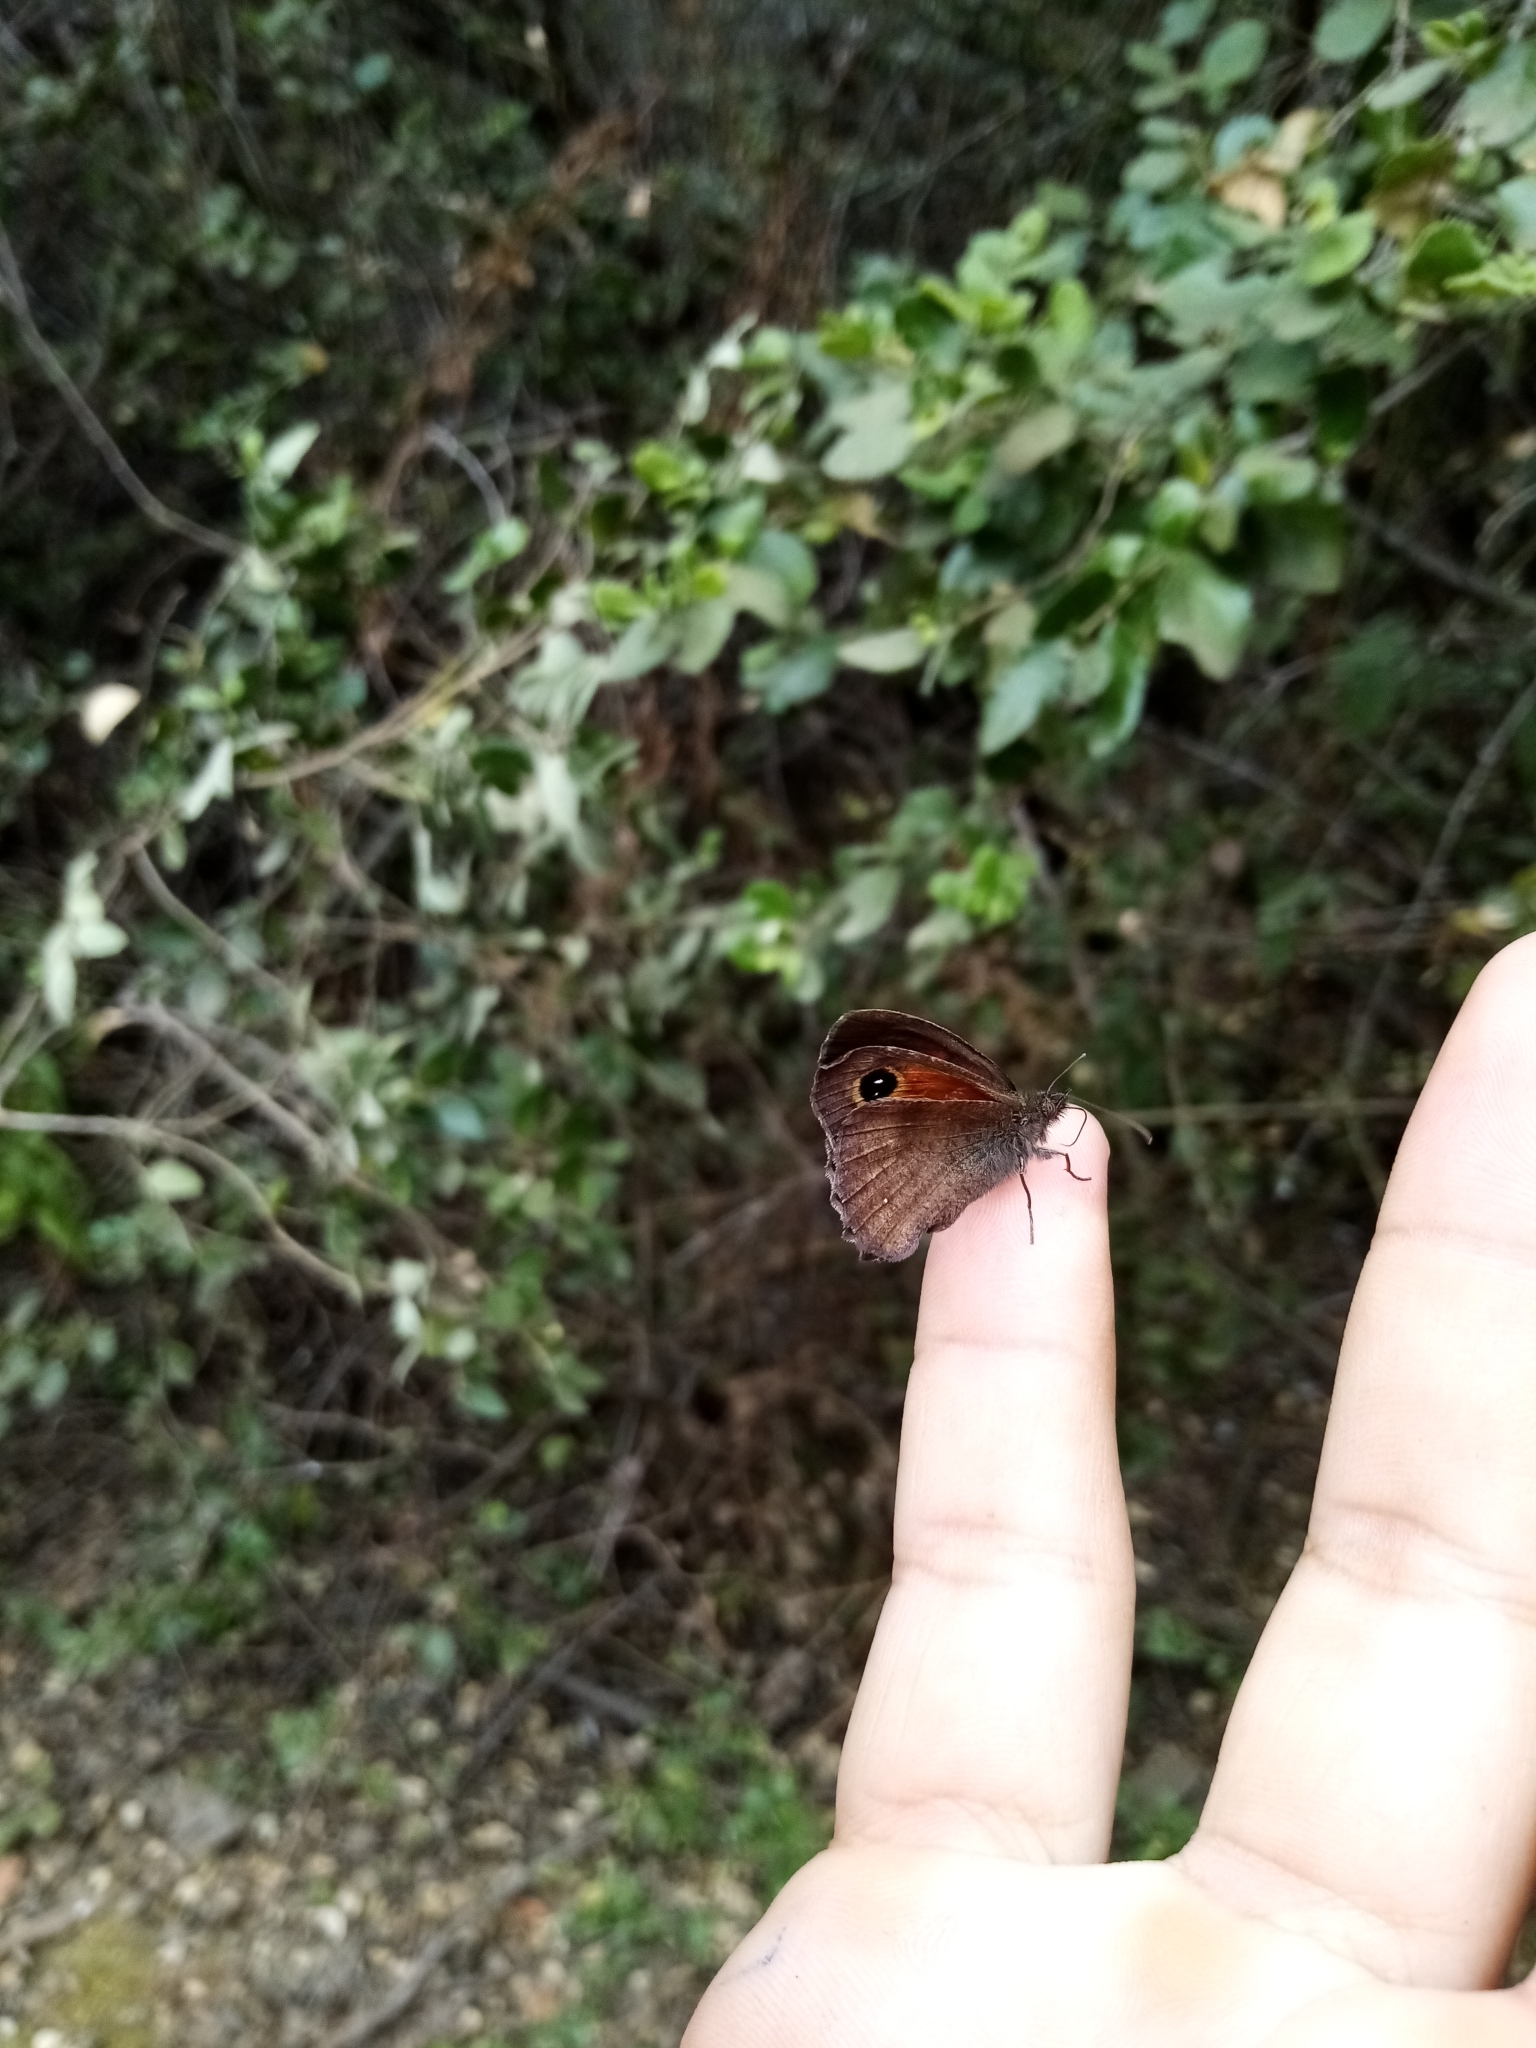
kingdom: Animalia
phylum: Arthropoda
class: Insecta
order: Lepidoptera
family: Nymphalidae
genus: Auca
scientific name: Auca coctei
